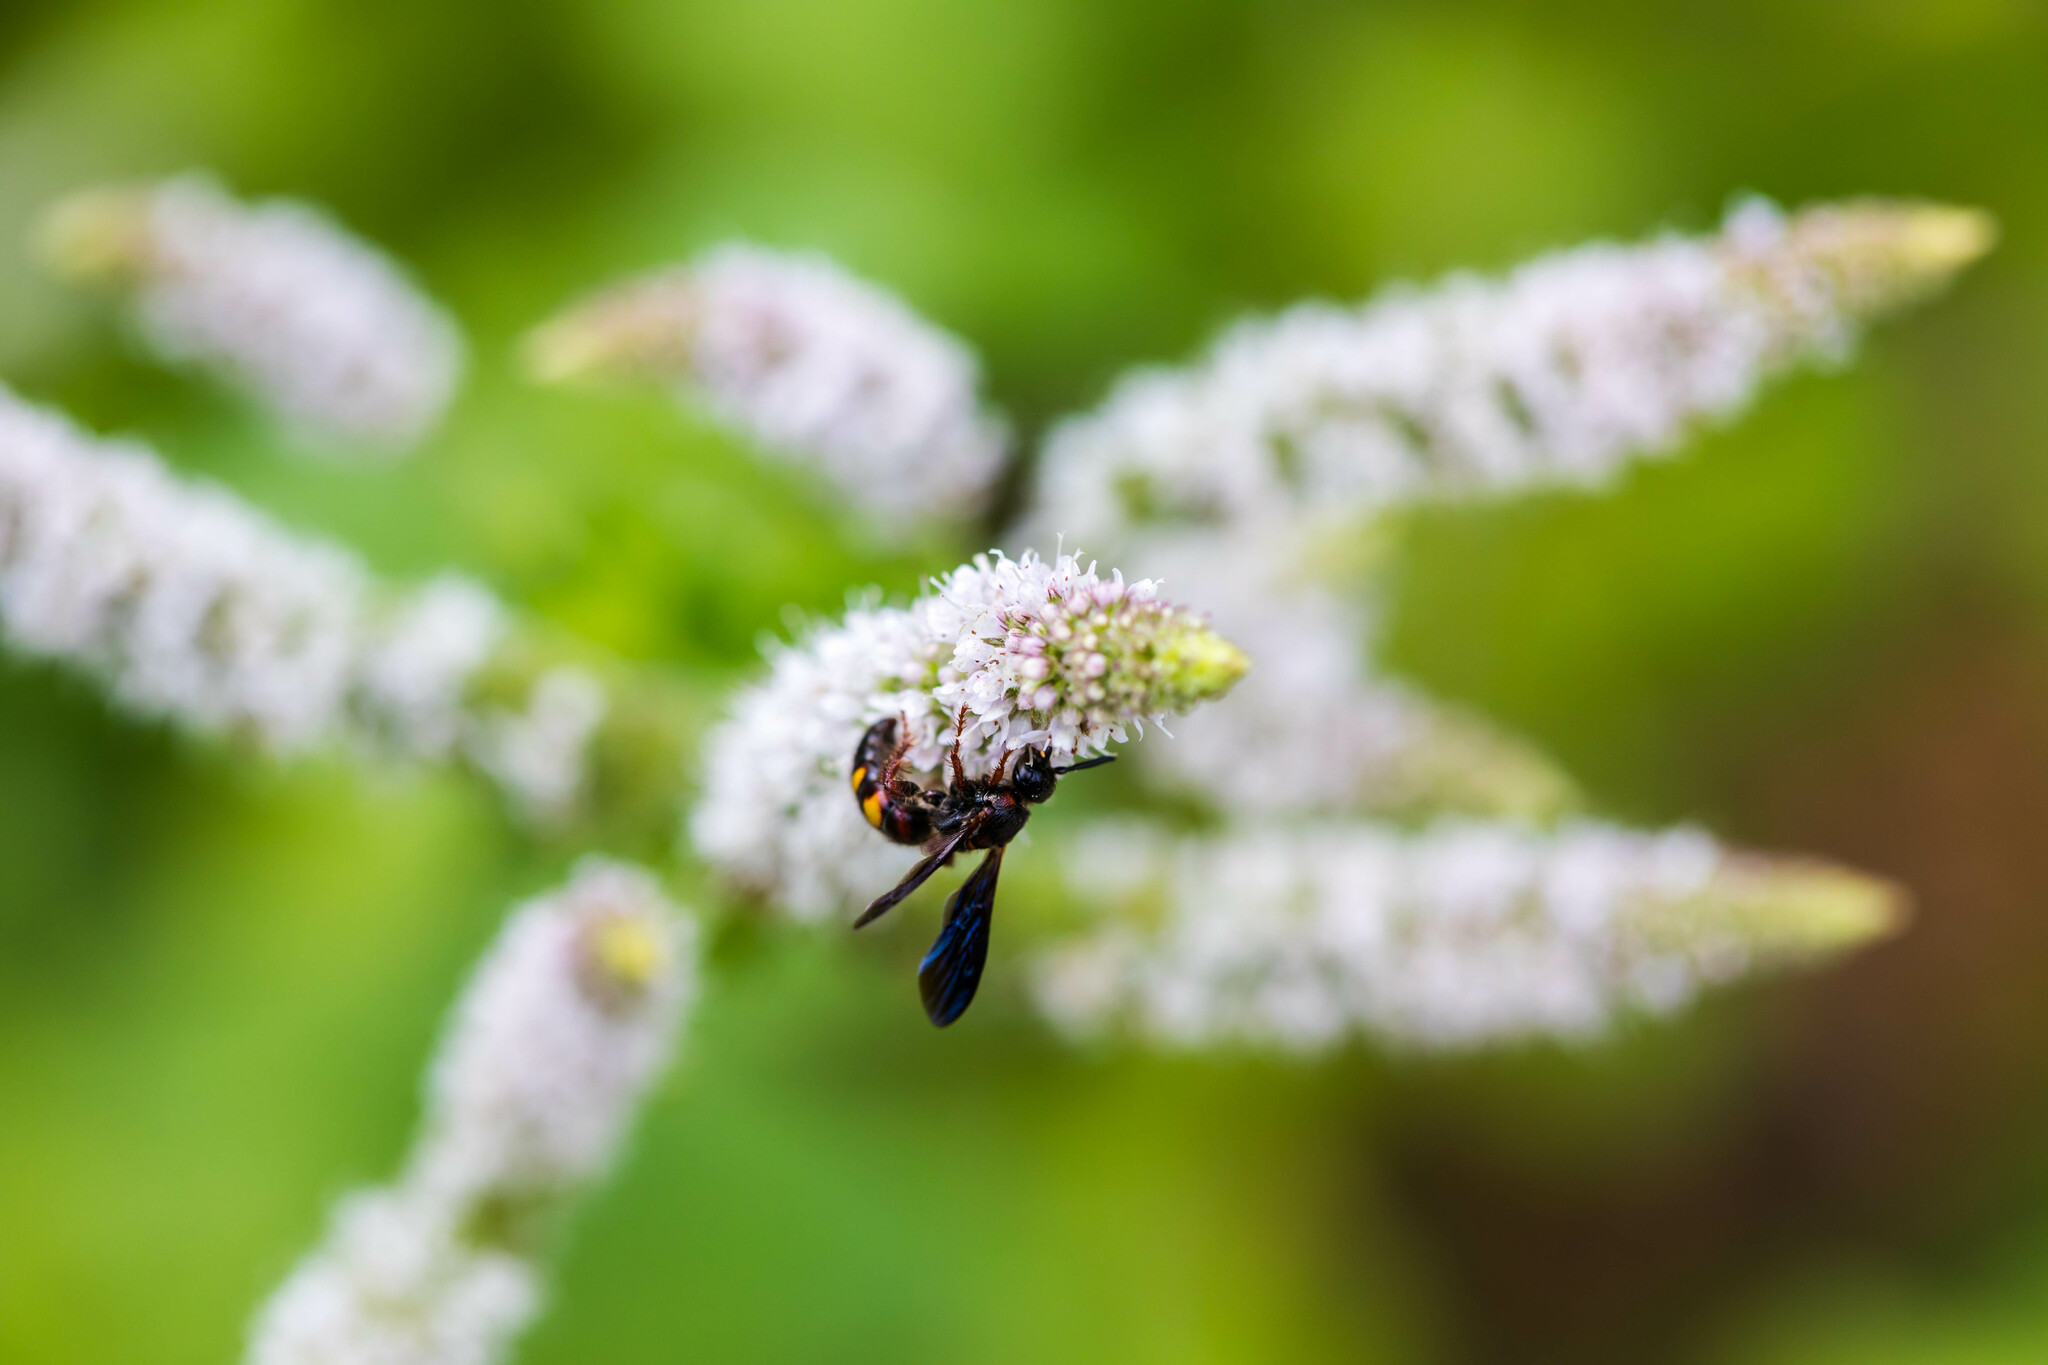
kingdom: Animalia
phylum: Arthropoda
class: Insecta
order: Hymenoptera
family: Scoliidae
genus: Scolia
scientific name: Scolia nobilitata
